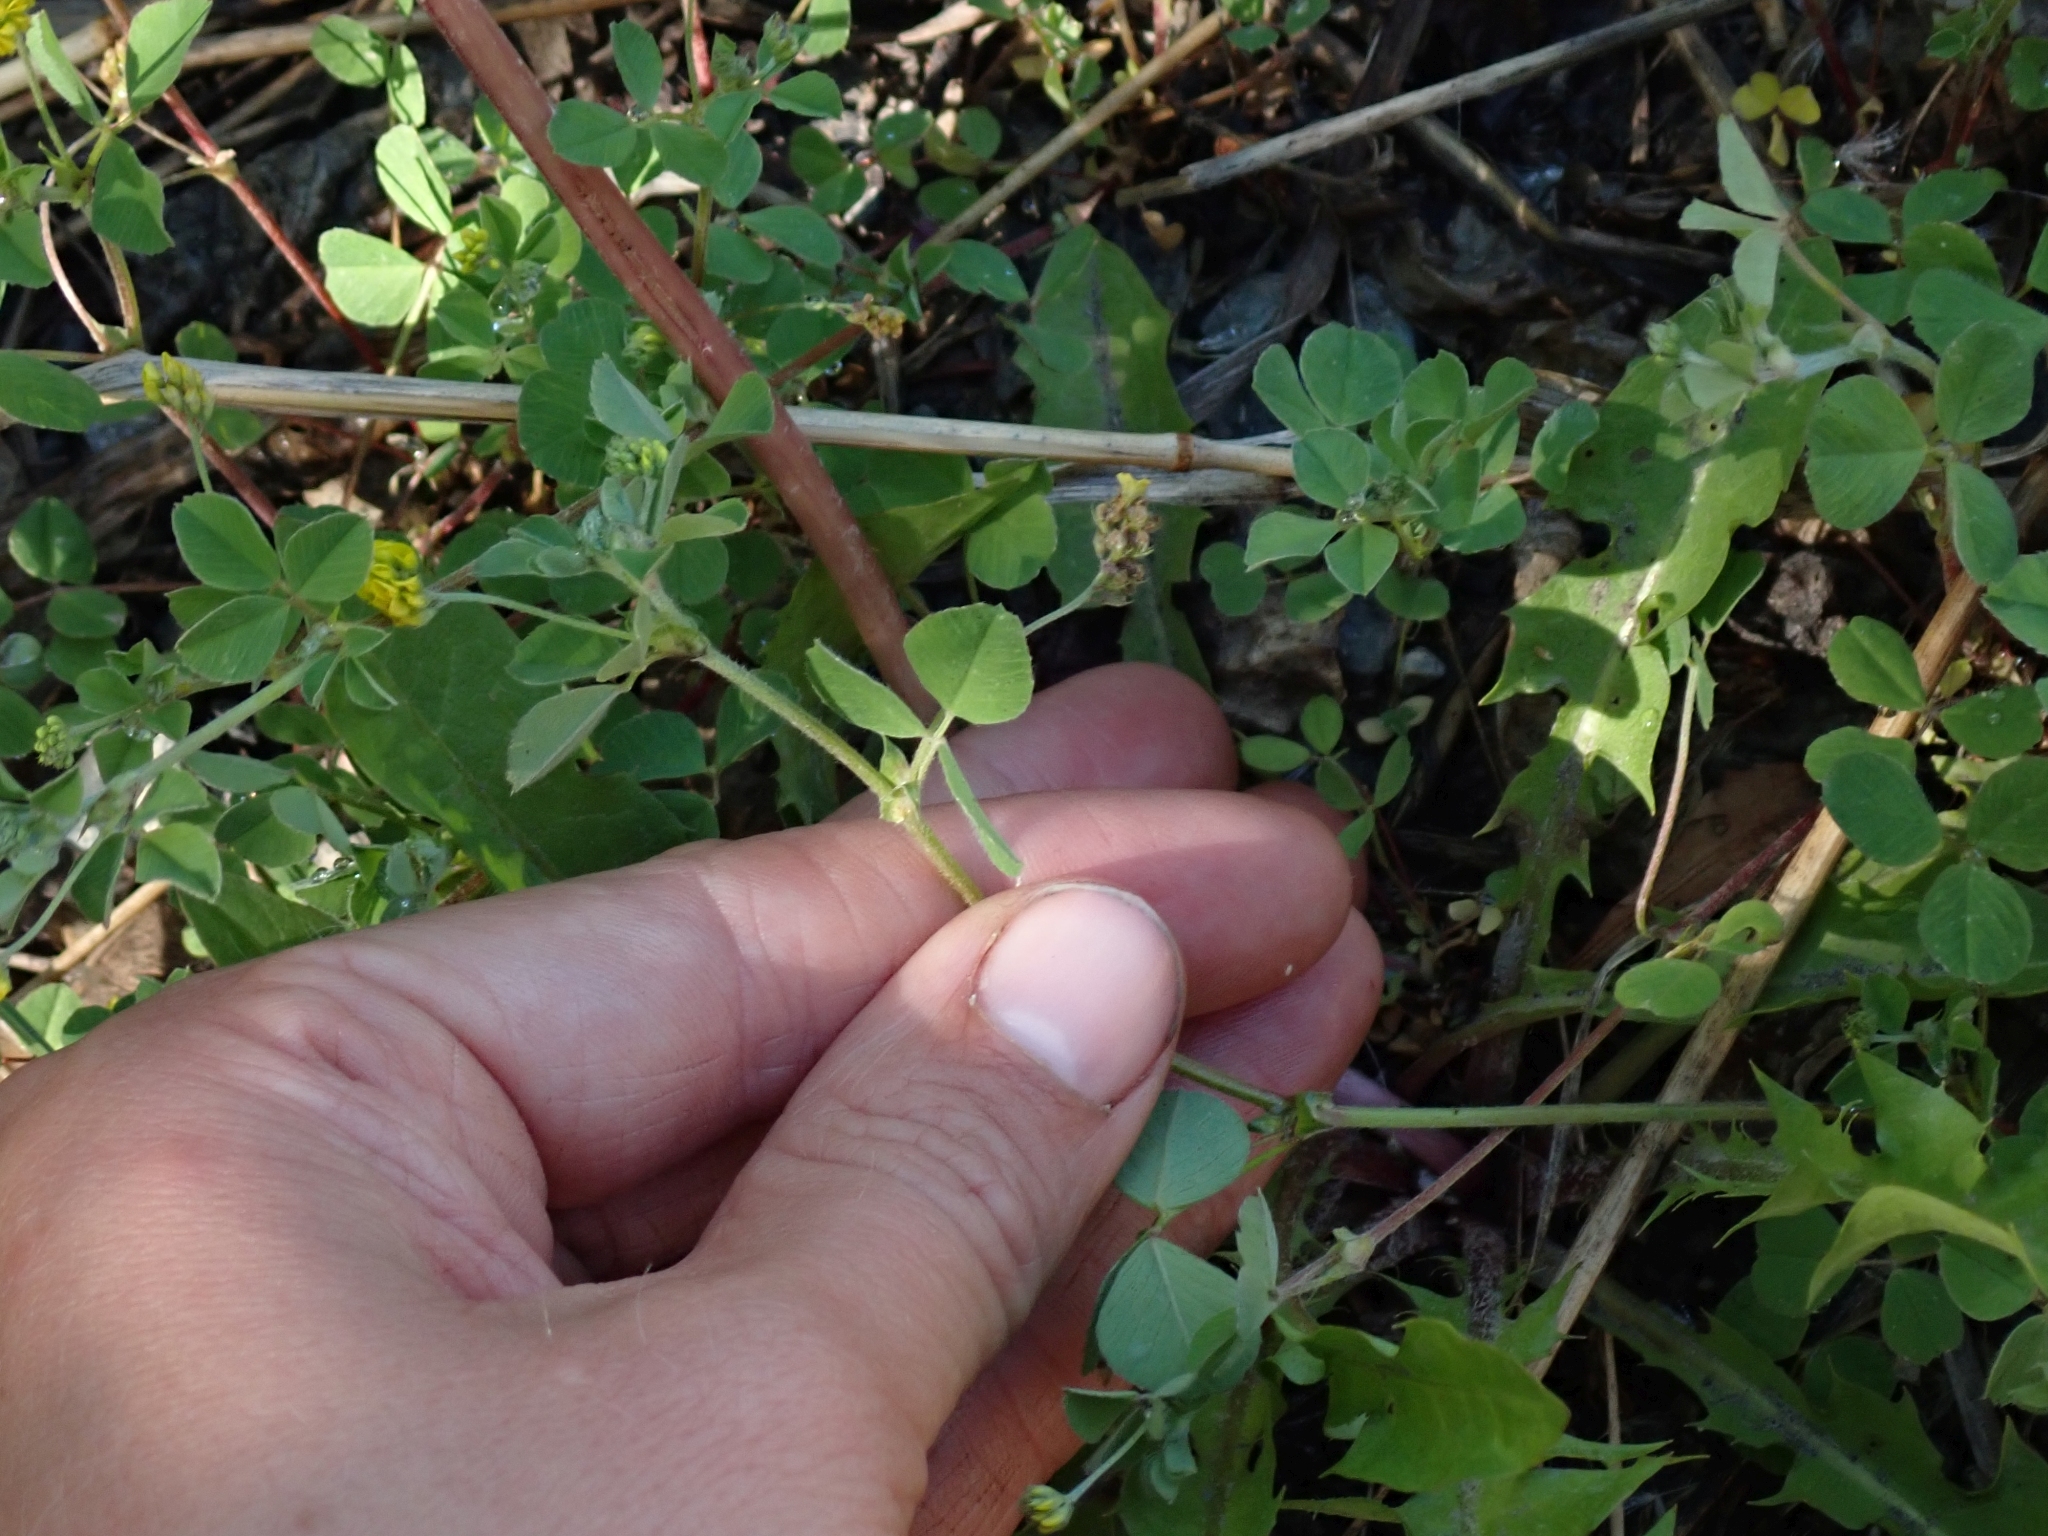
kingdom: Plantae
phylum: Tracheophyta
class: Magnoliopsida
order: Fabales
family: Fabaceae
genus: Medicago
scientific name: Medicago lupulina
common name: Black medick
